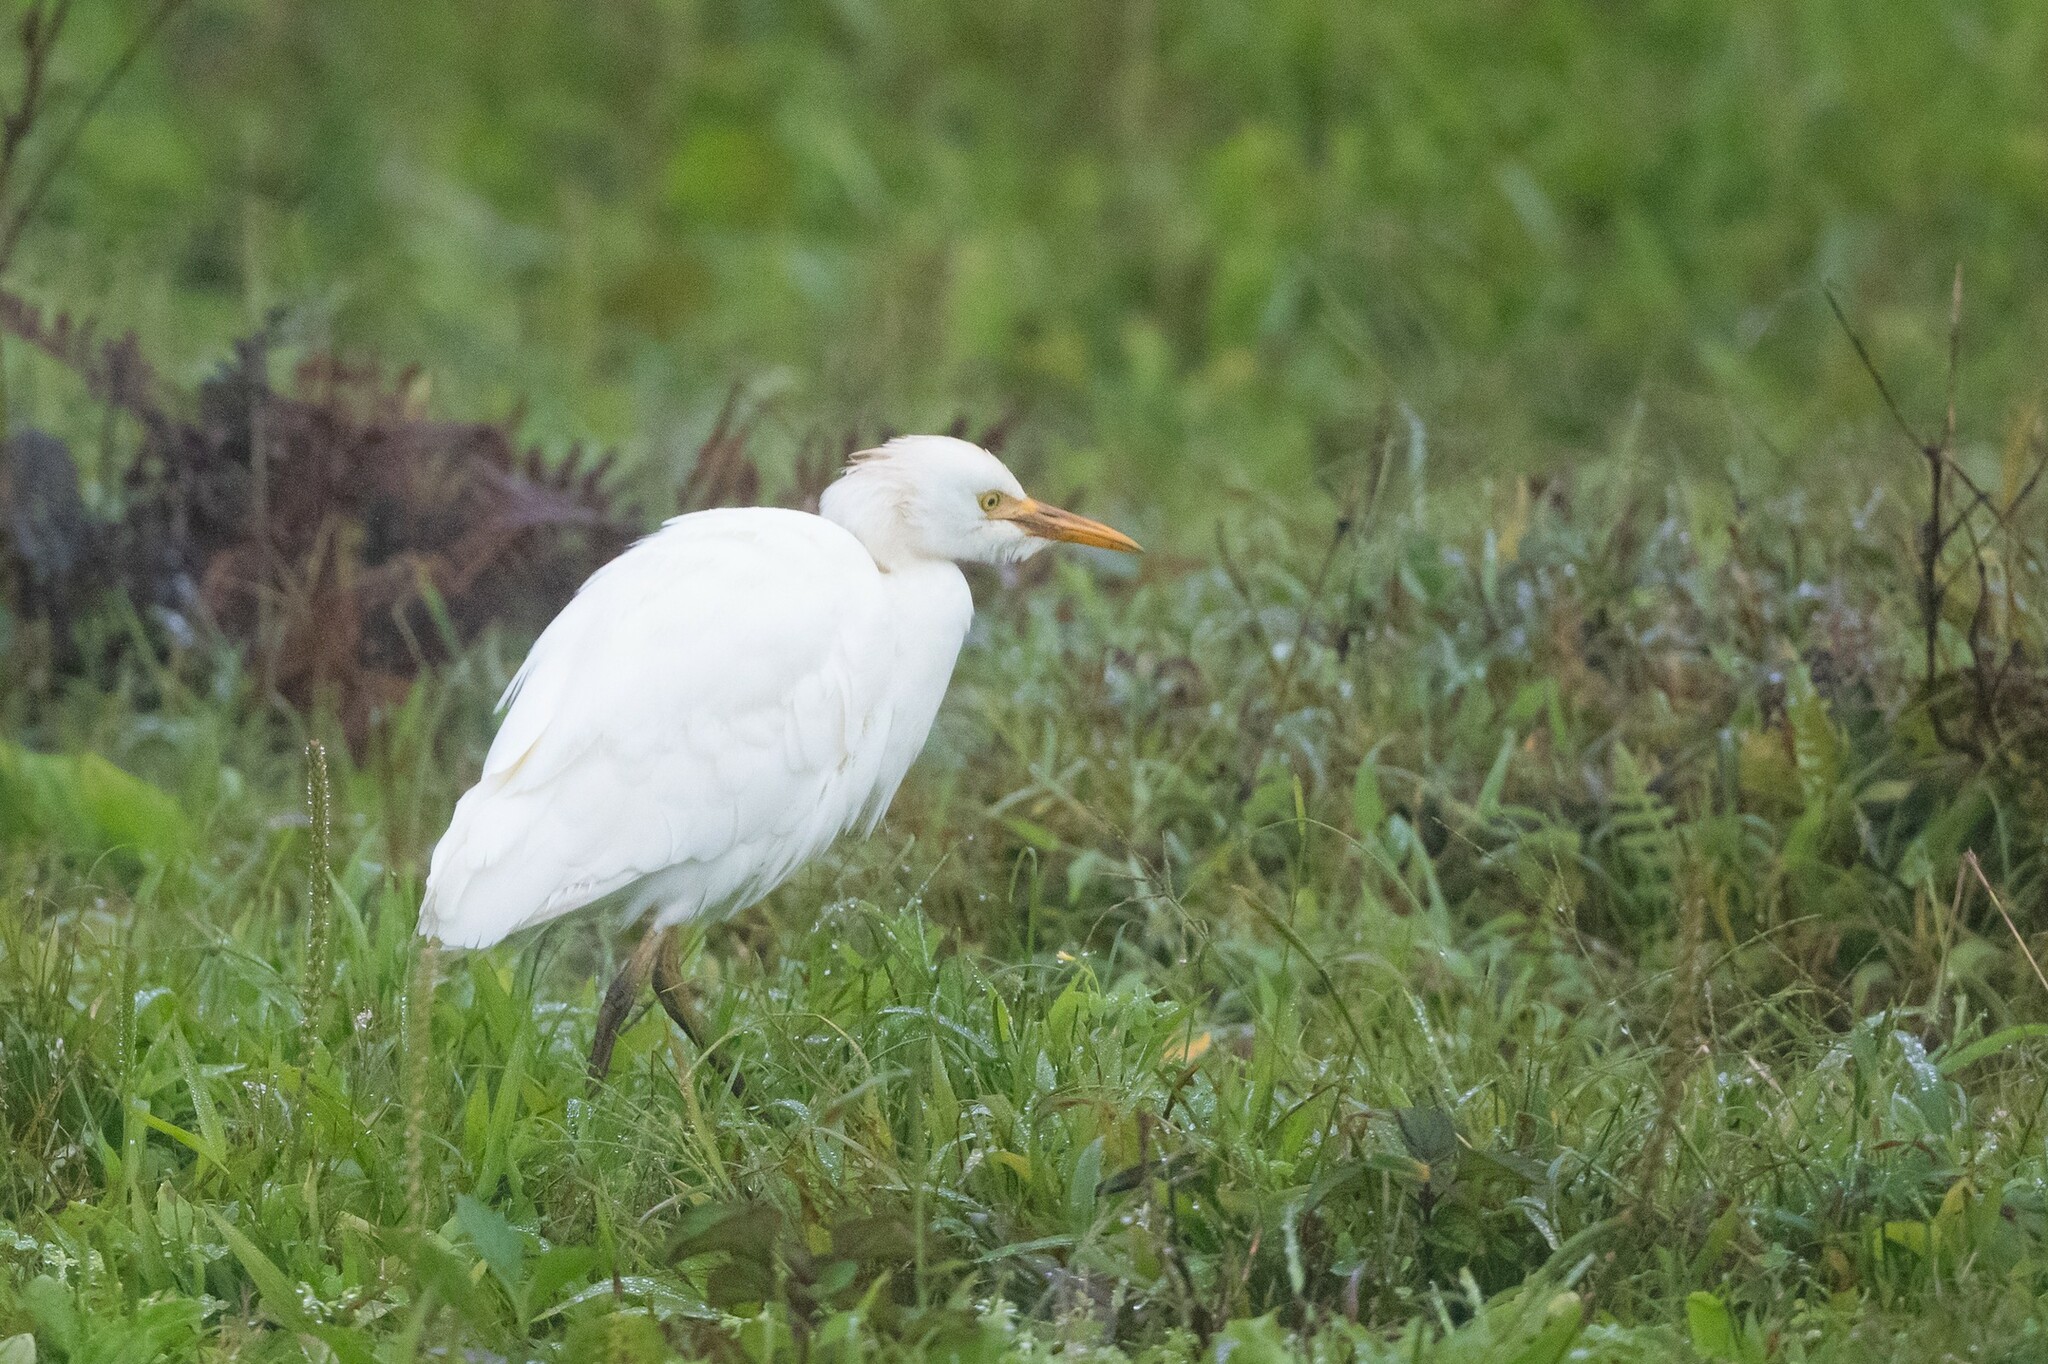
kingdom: Animalia
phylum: Chordata
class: Aves
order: Pelecaniformes
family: Ardeidae
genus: Bubulcus
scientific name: Bubulcus ibis
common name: Cattle egret
